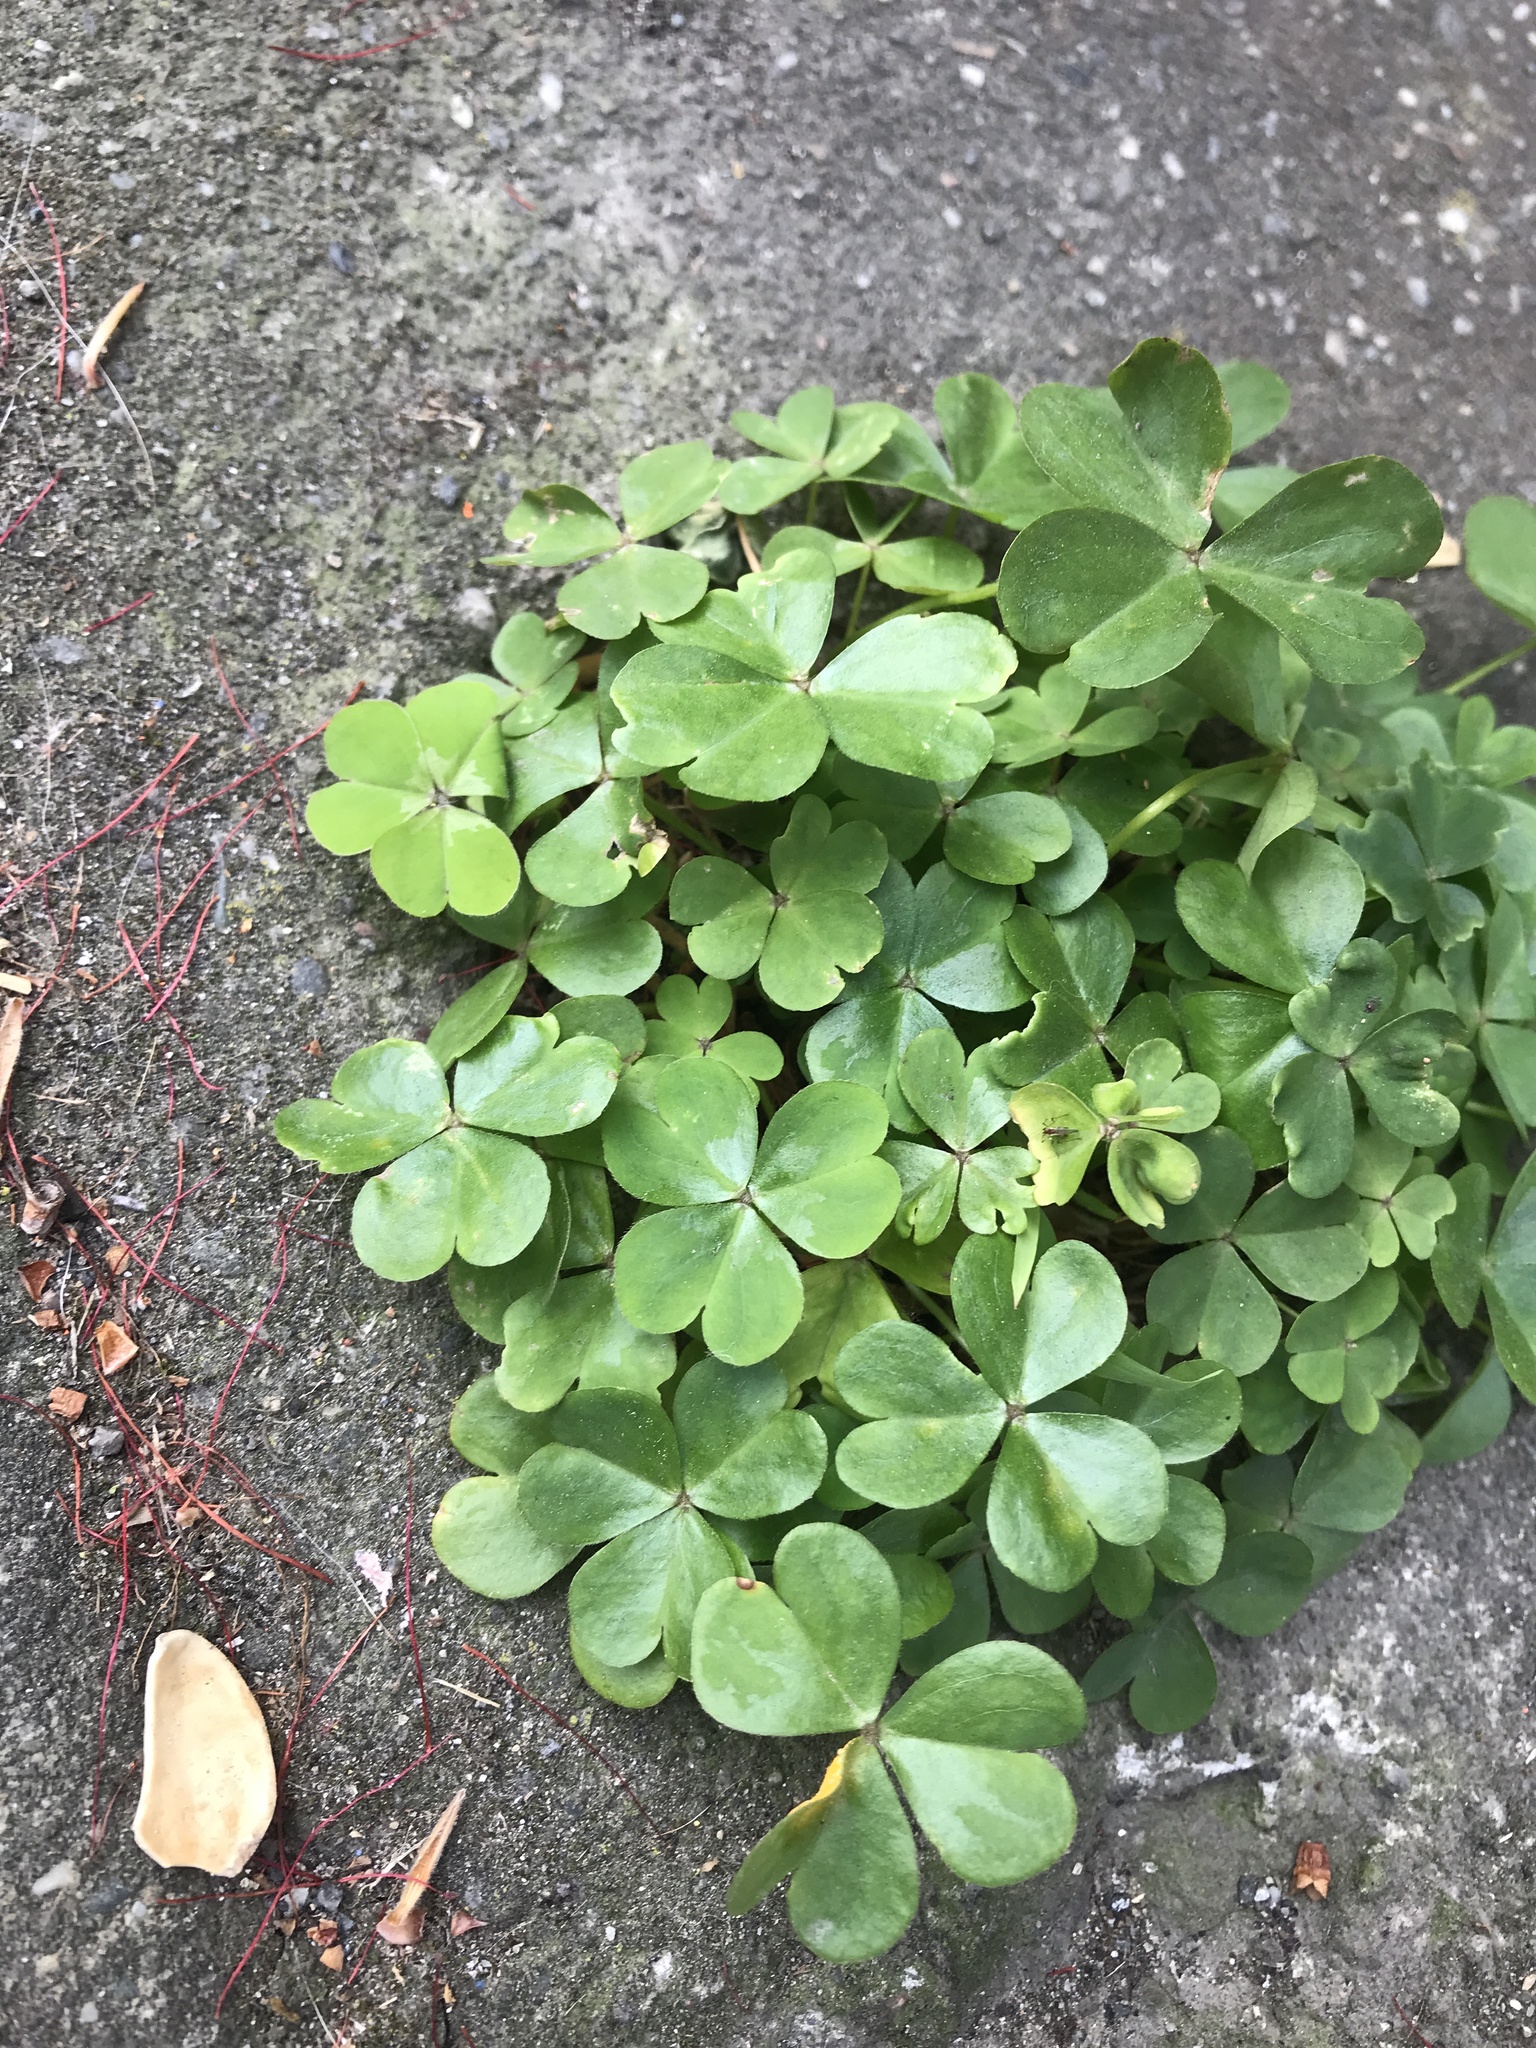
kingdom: Plantae
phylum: Tracheophyta
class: Magnoliopsida
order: Oxalidales
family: Oxalidaceae
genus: Oxalis
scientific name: Oxalis debilis
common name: Large-flowered pink-sorrel
